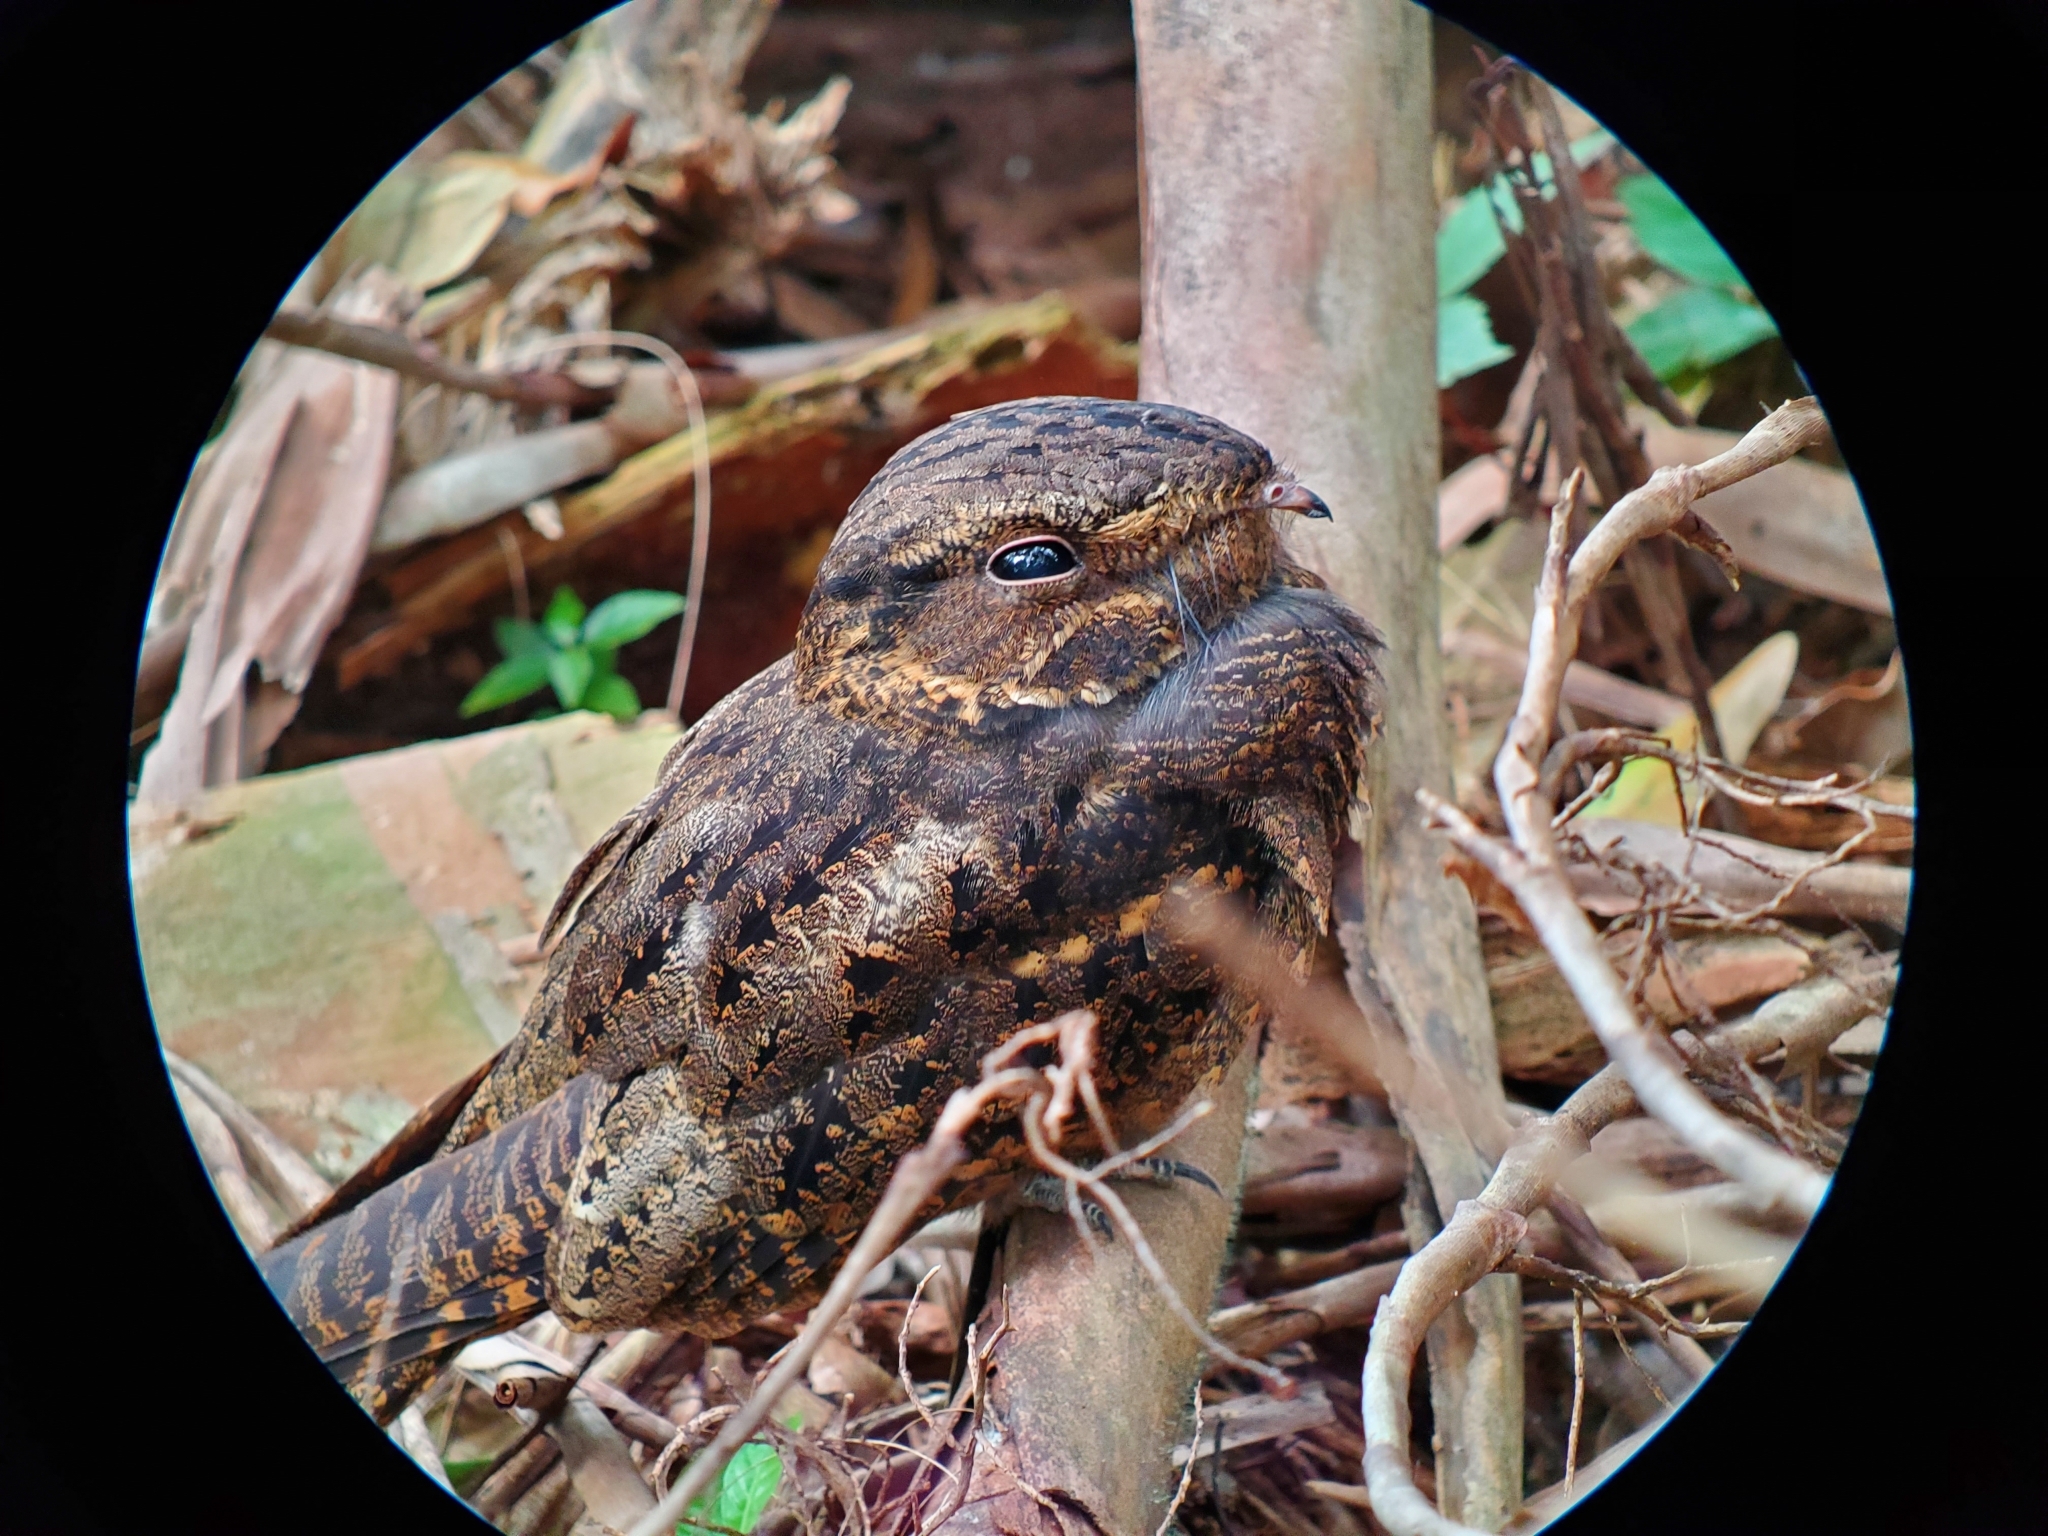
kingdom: Animalia
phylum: Chordata
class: Aves
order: Caprimulgiformes
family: Caprimulgidae
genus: Antrostomus
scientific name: Antrostomus carolinensis
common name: Chuck-will's-widow
